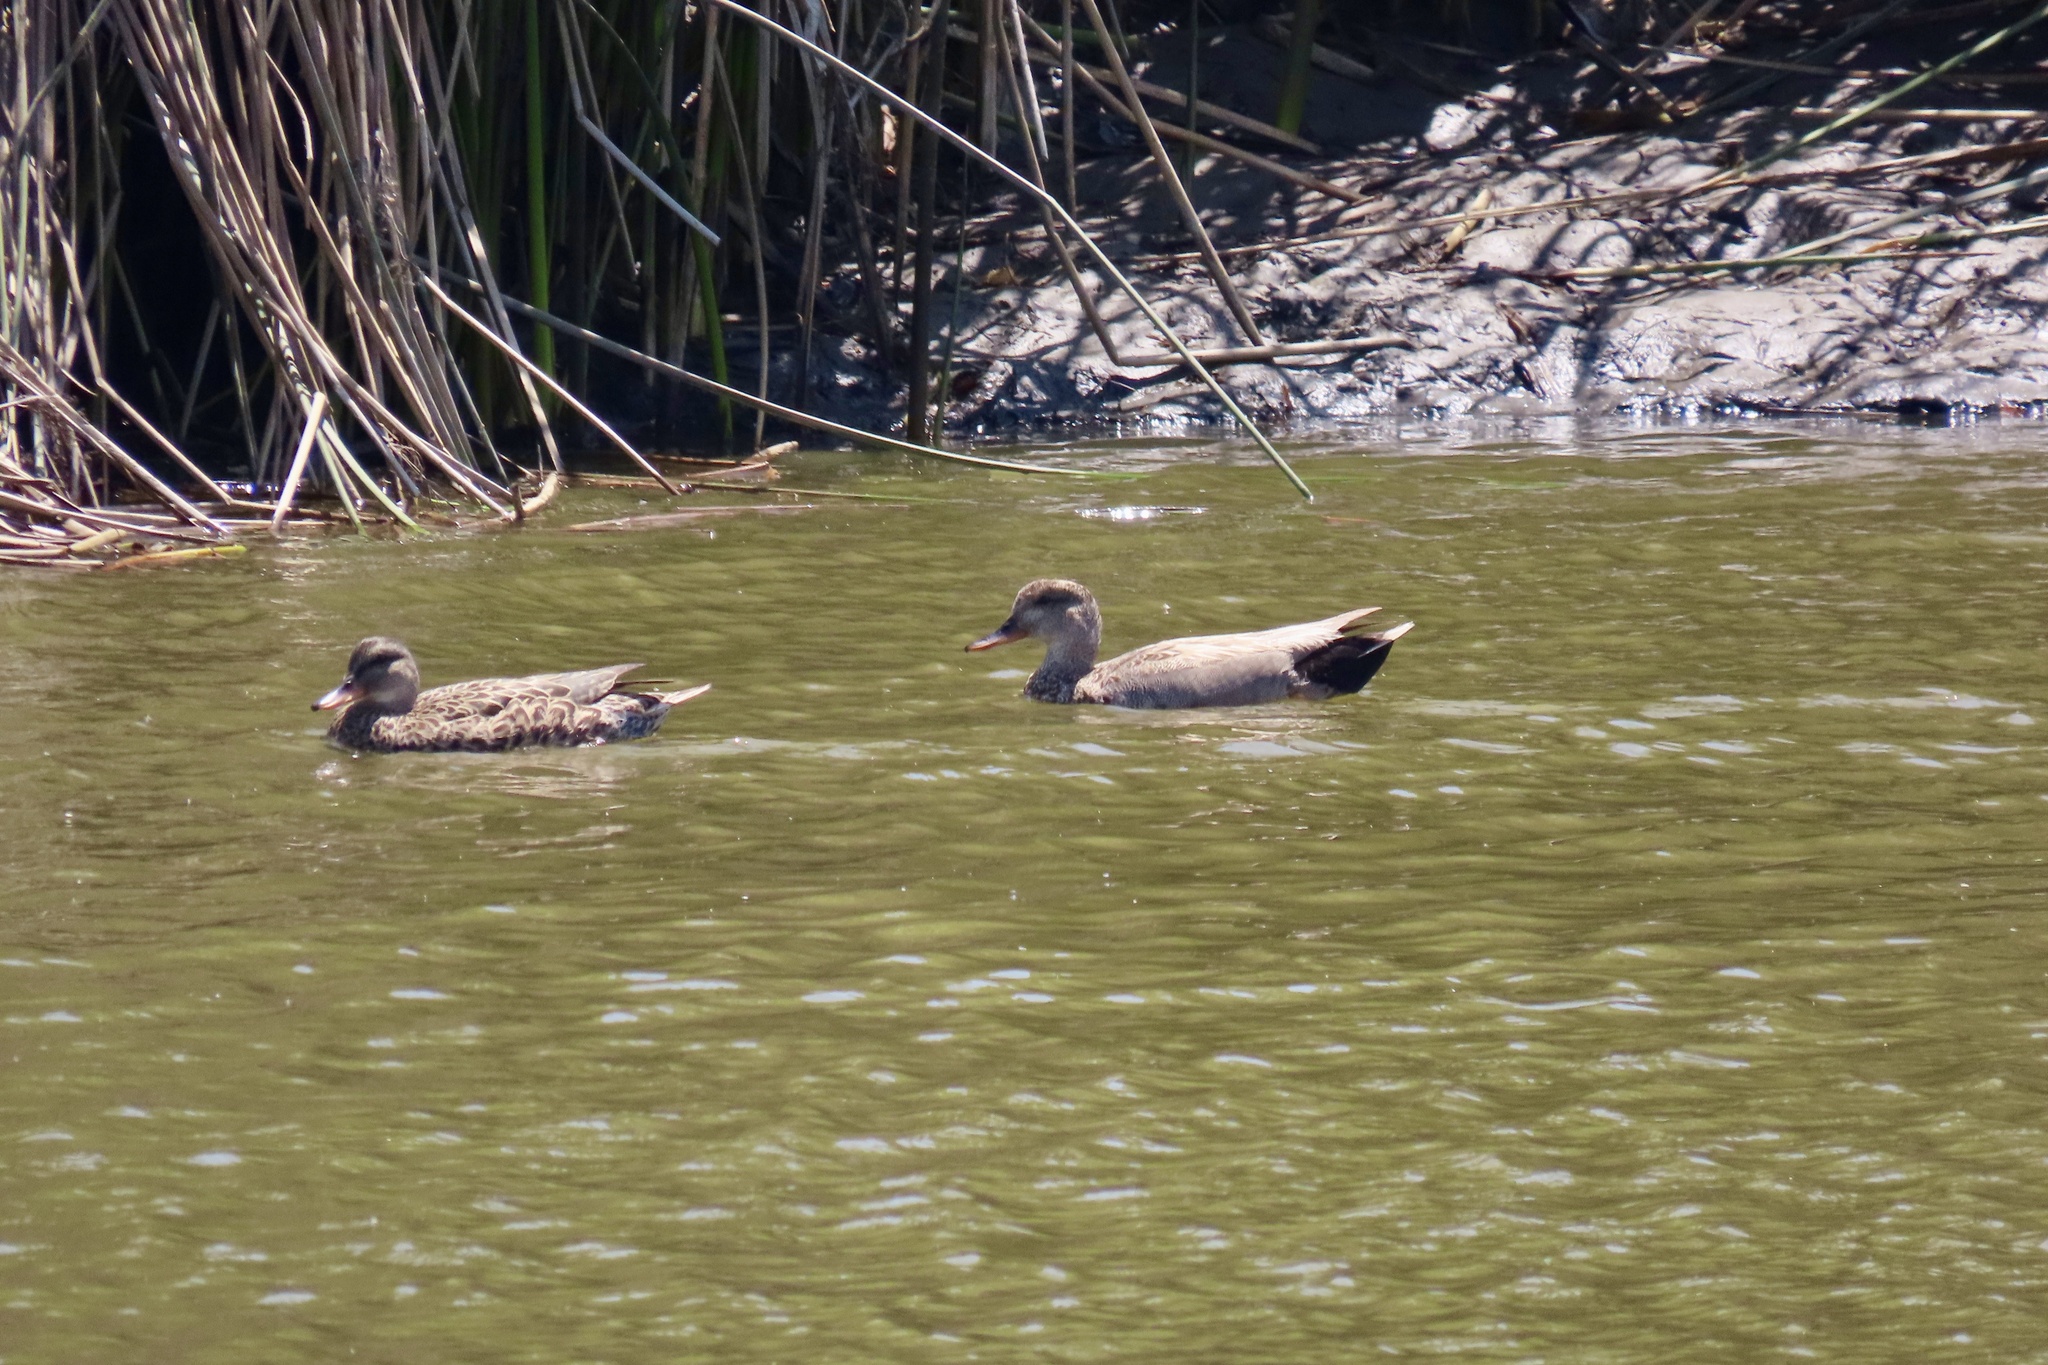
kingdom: Animalia
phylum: Chordata
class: Aves
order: Anseriformes
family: Anatidae
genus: Mareca
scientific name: Mareca strepera
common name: Gadwall
